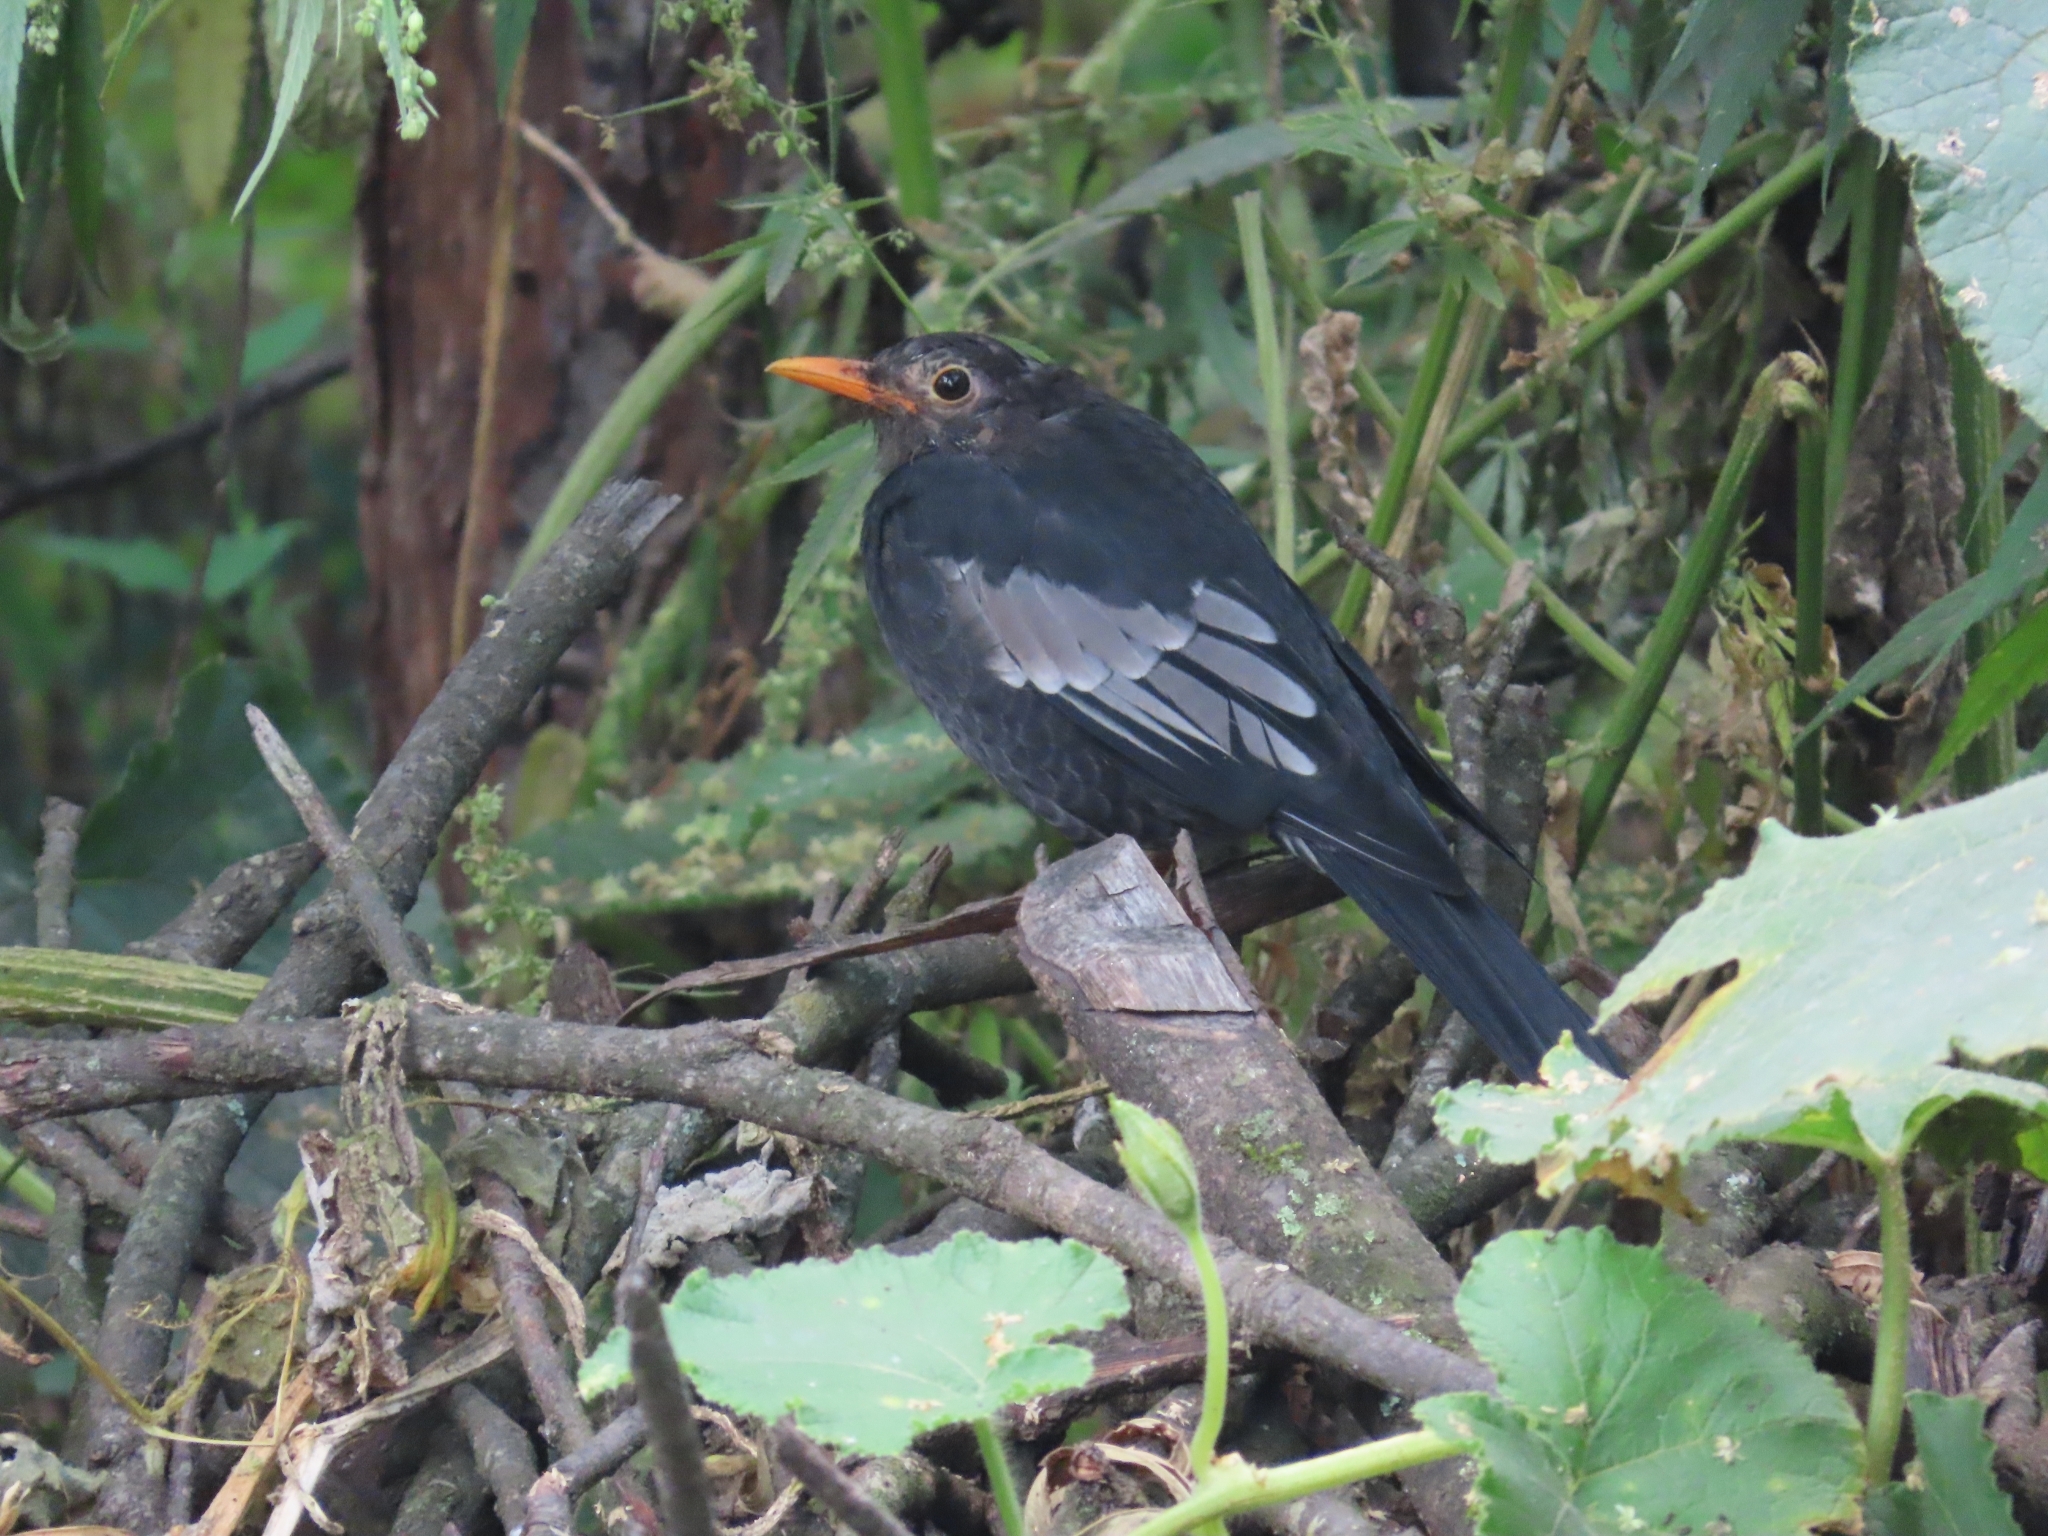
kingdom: Animalia
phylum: Chordata
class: Aves
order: Passeriformes
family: Turdidae
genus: Turdus
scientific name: Turdus boulboul
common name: Grey-winged blackbird
